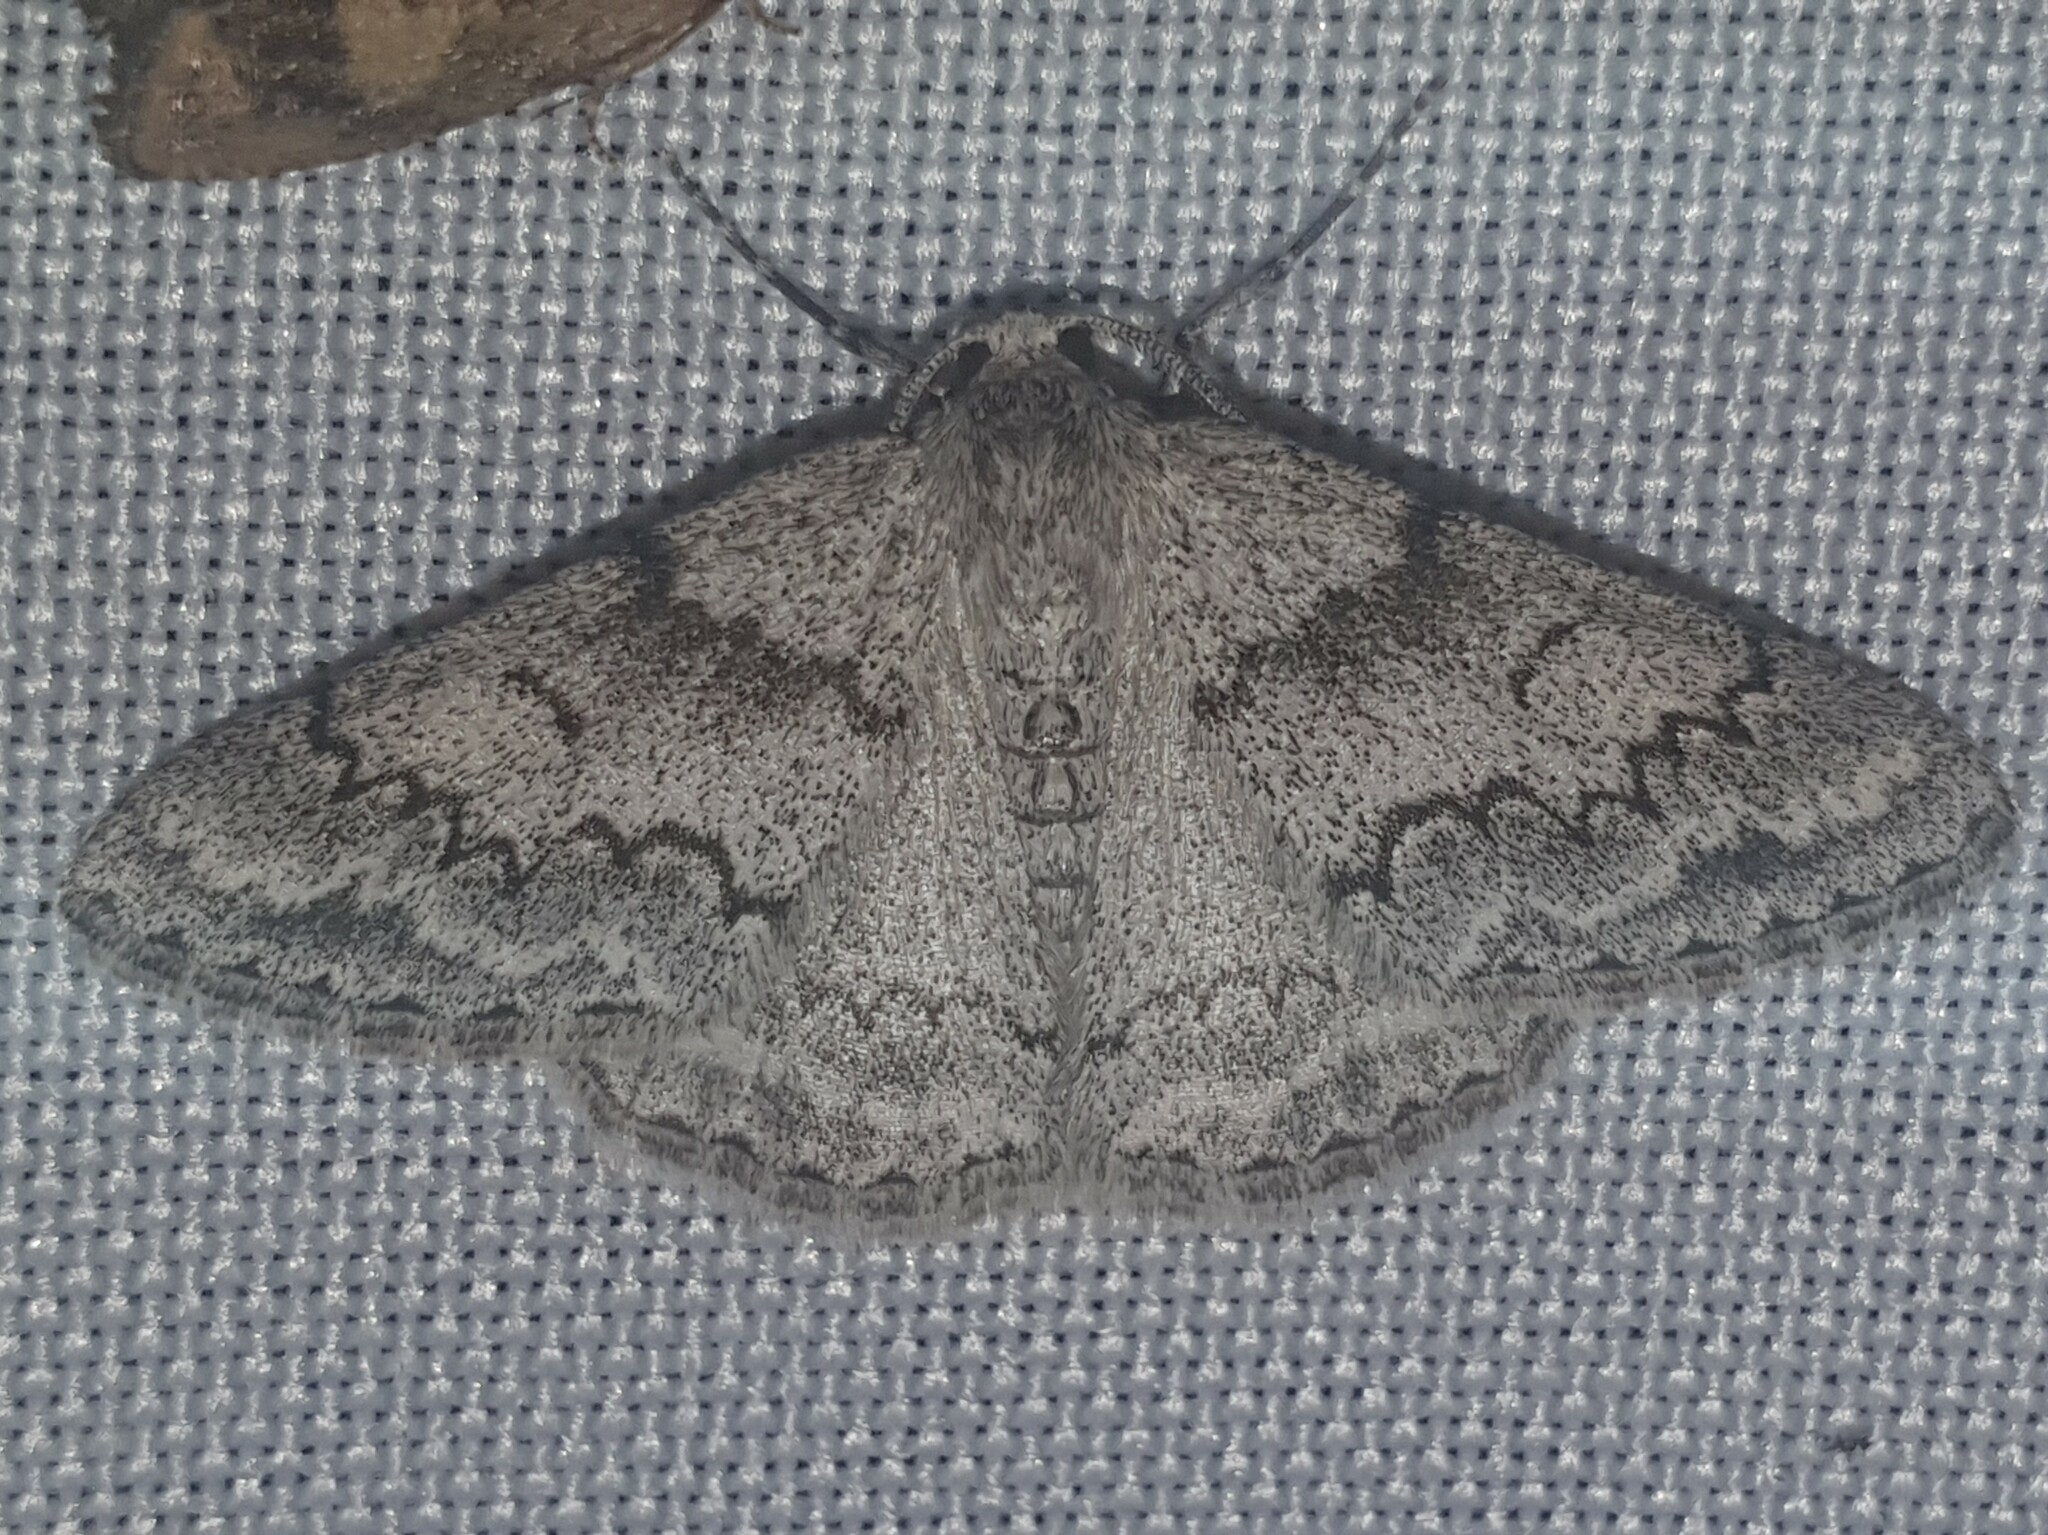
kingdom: Animalia
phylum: Arthropoda
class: Insecta
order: Lepidoptera
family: Geometridae
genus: Pseudoterpna
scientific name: Pseudoterpna coronillaria
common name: Jersey emerald
